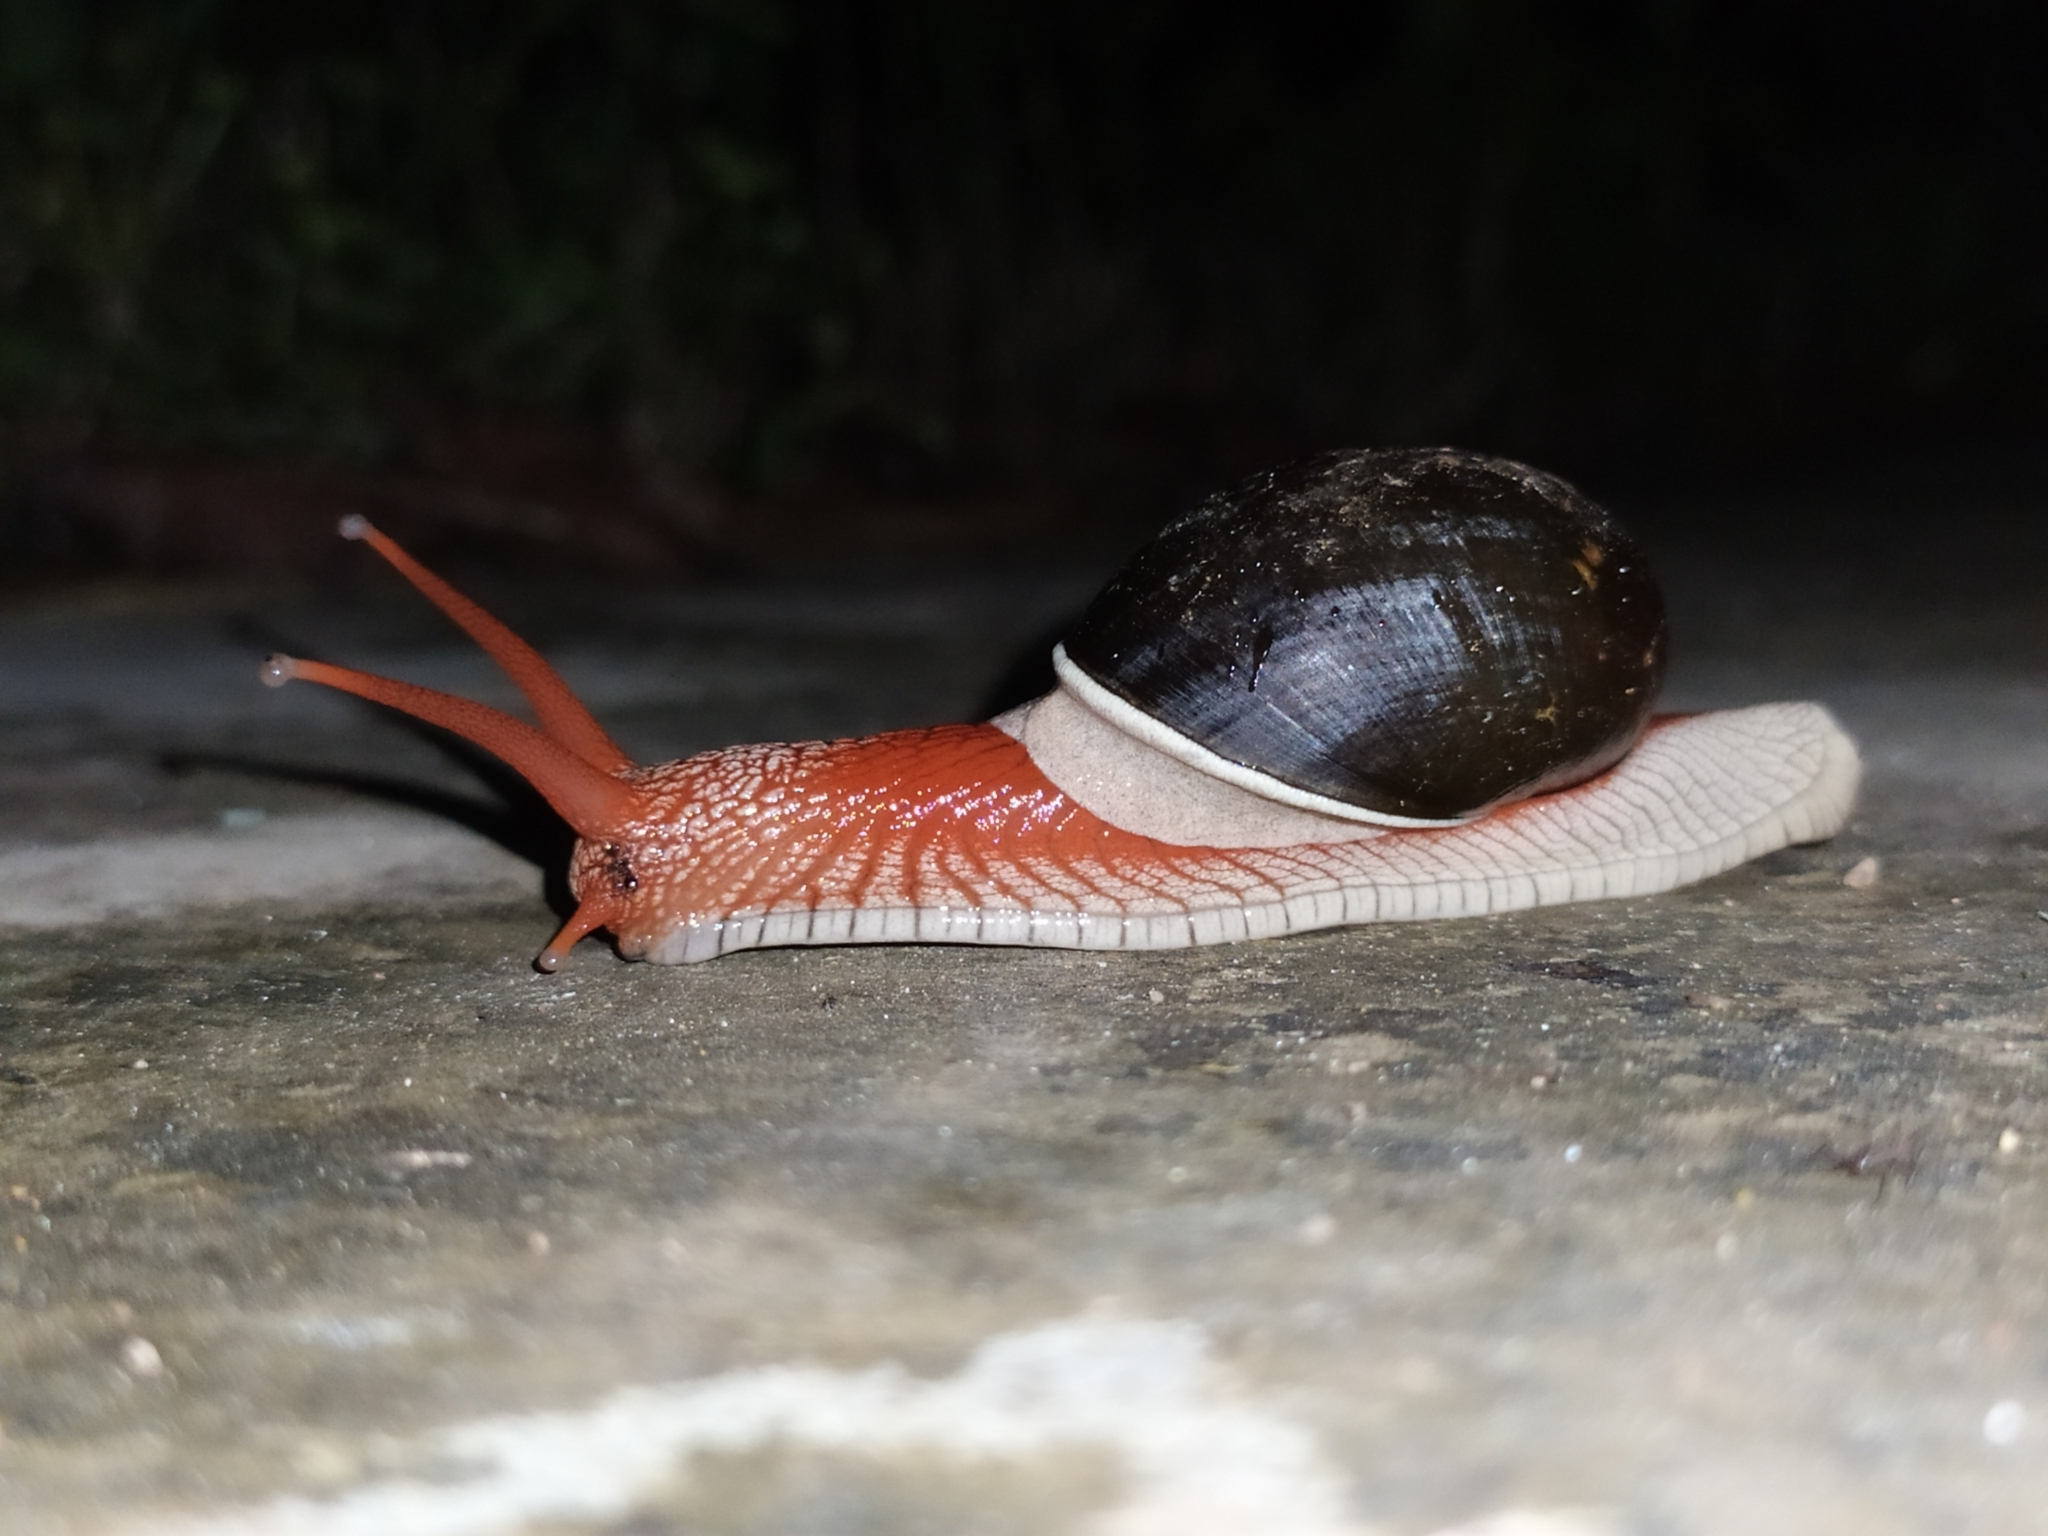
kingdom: Animalia
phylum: Mollusca
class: Gastropoda
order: Stylommatophora
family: Ariophantidae
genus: Indrella
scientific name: Indrella ampulla
